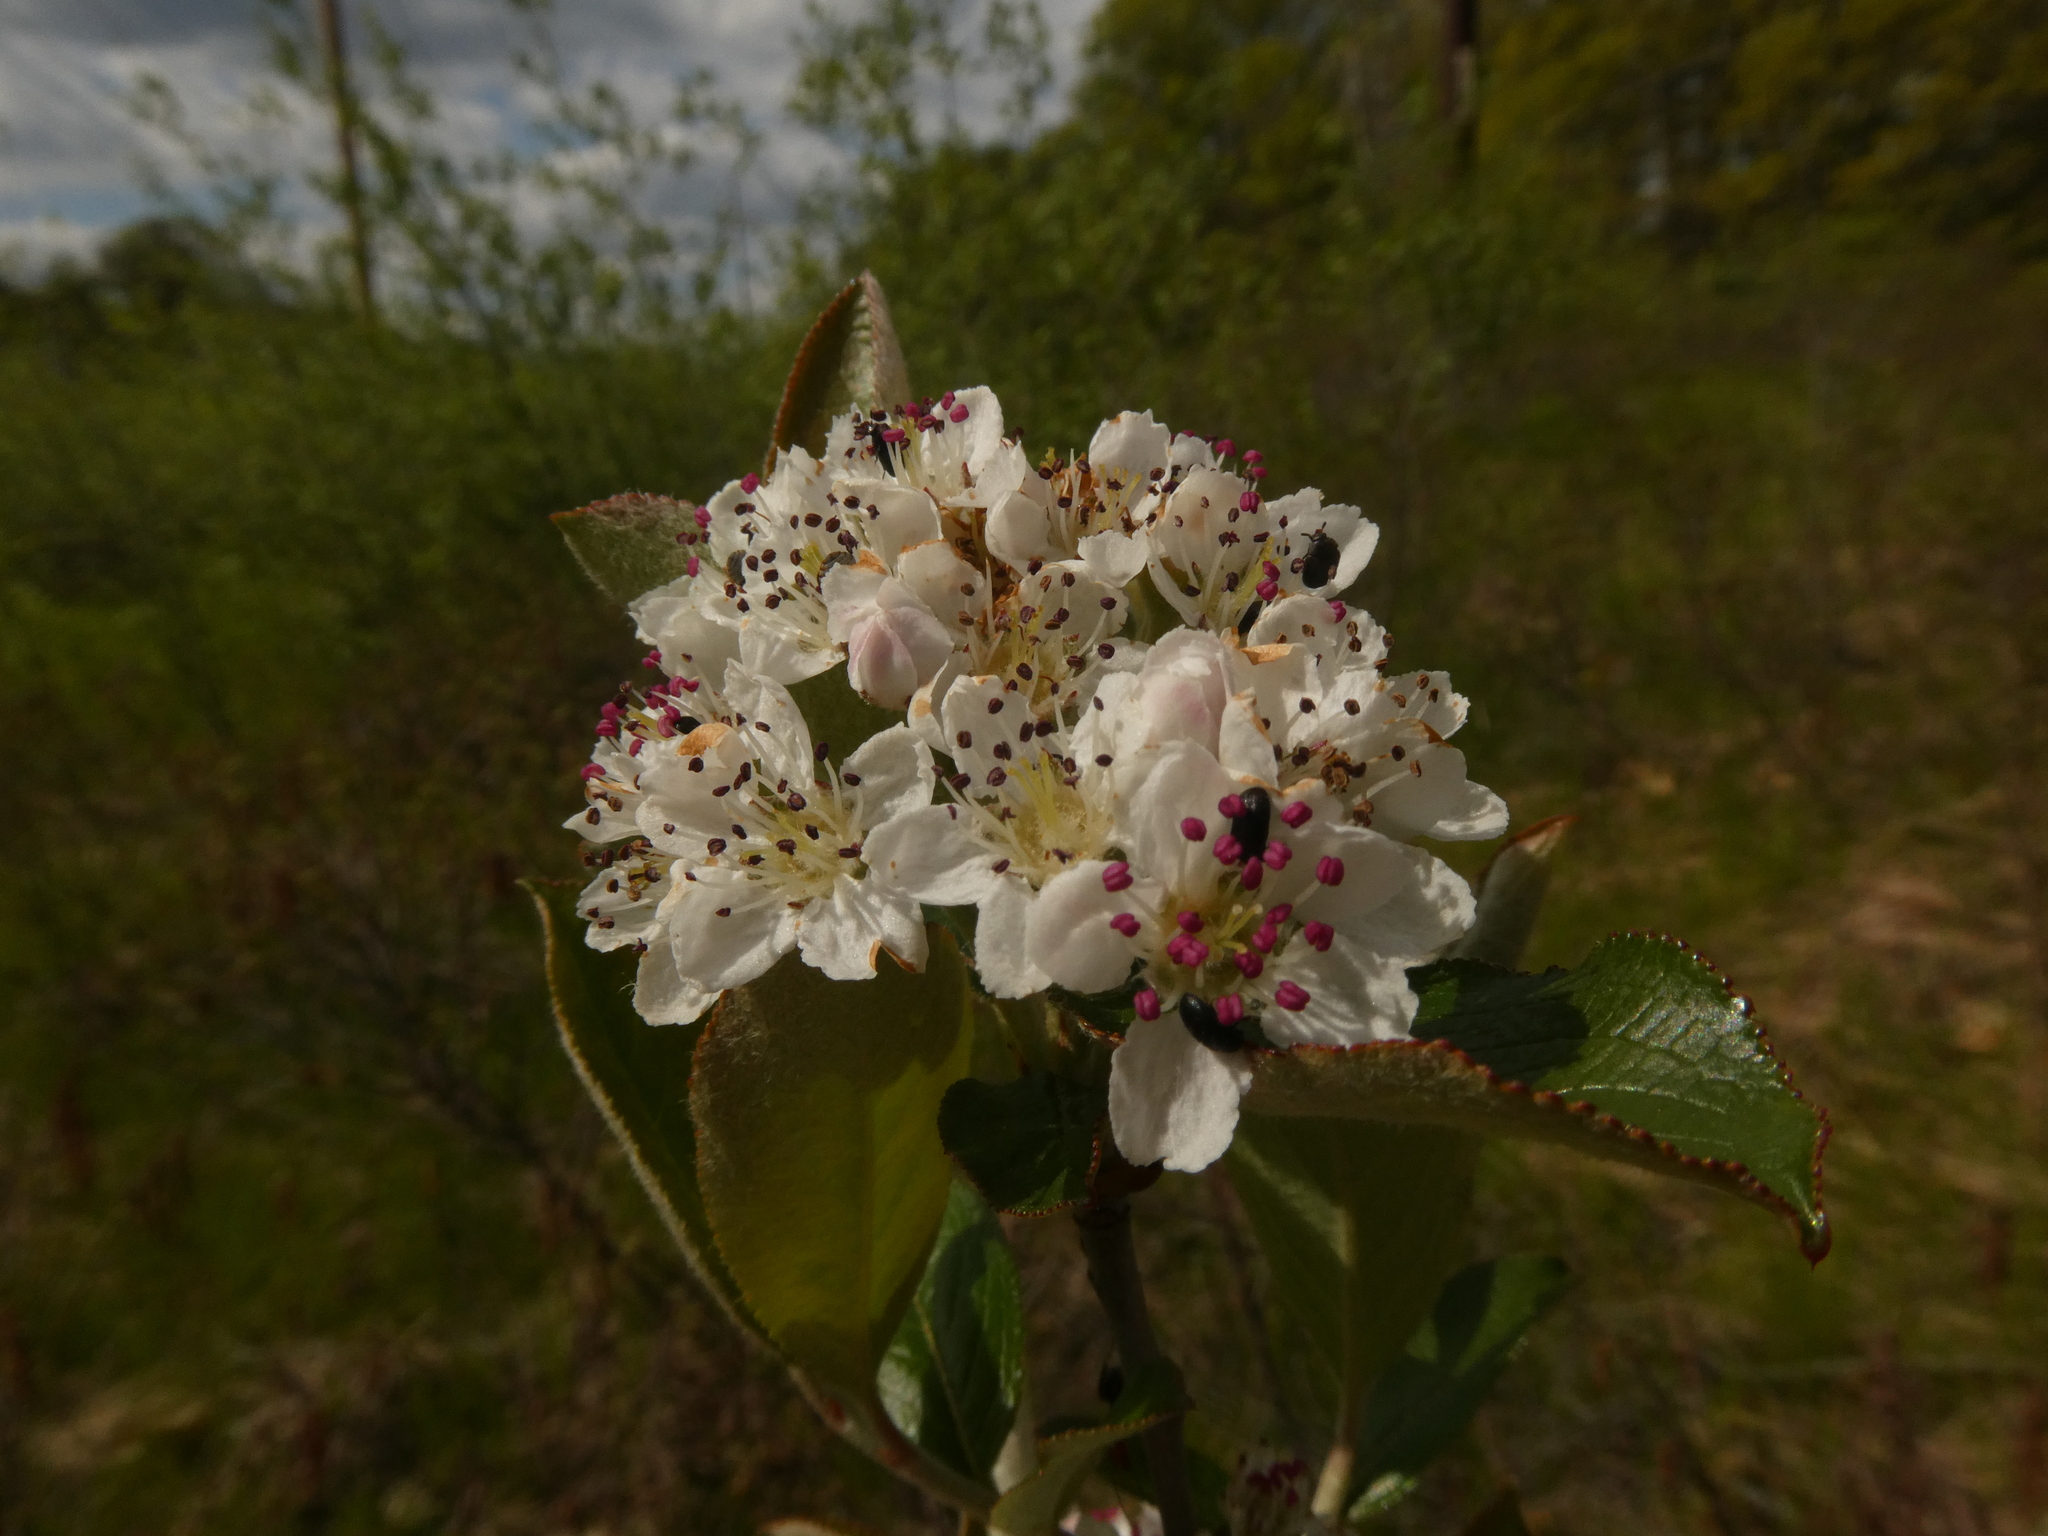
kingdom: Plantae
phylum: Tracheophyta
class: Magnoliopsida
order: Rosales
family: Rosaceae
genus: Aronia
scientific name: Aronia prunifolia
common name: Purple chokeberry
